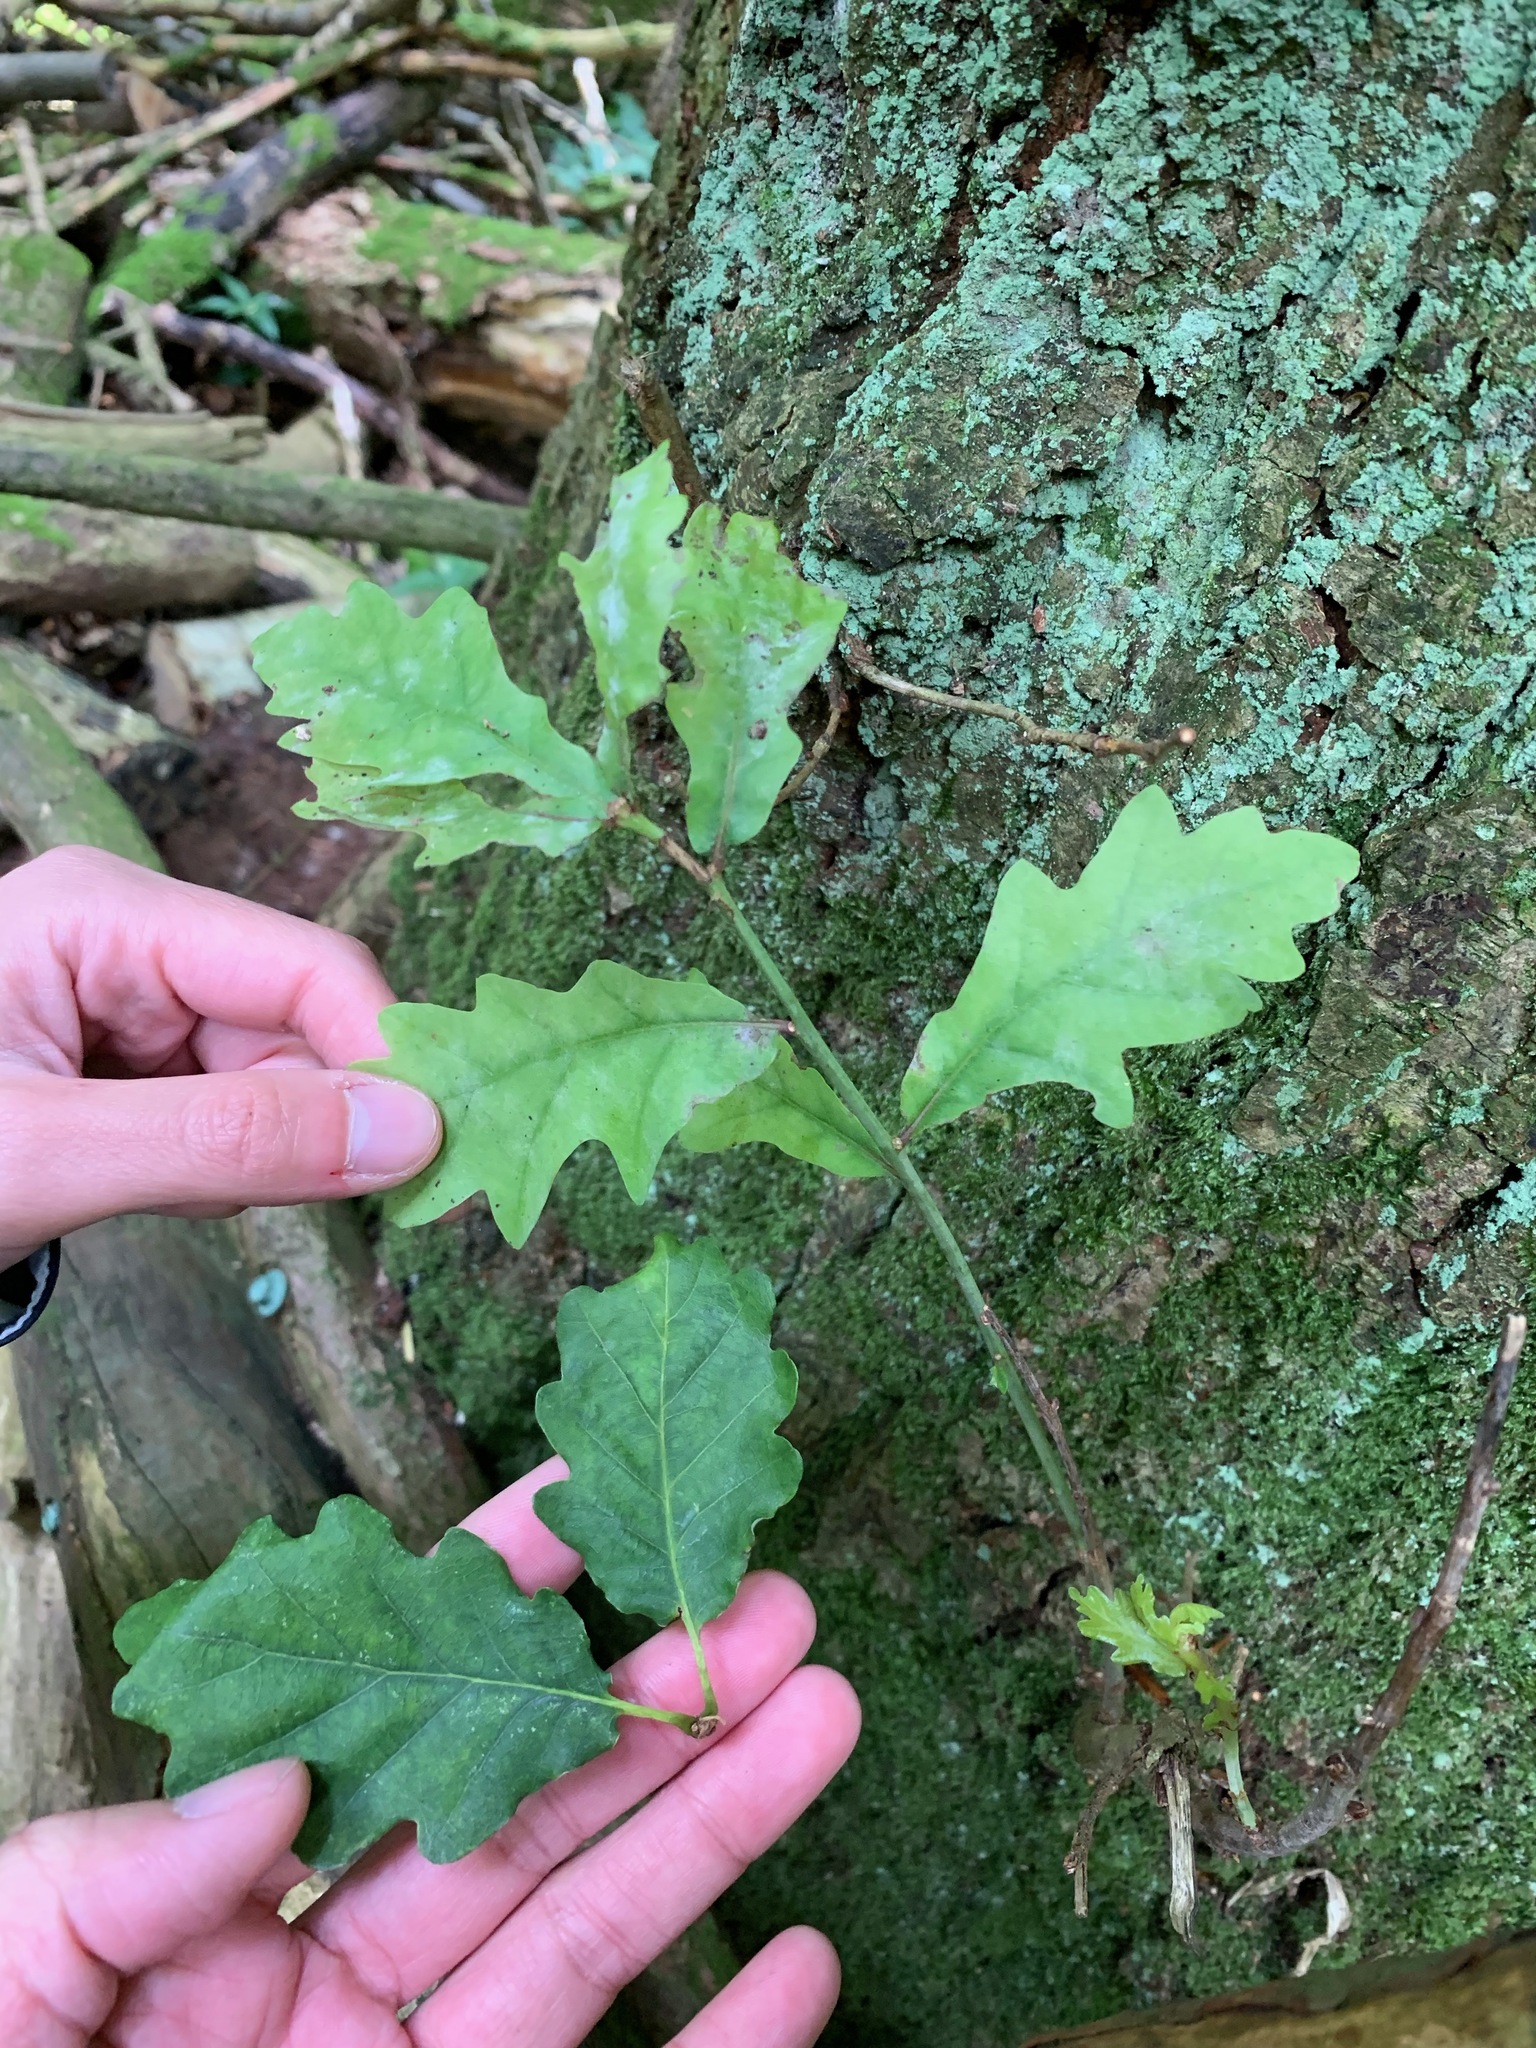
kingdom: Plantae
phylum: Tracheophyta
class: Magnoliopsida
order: Fagales
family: Fagaceae
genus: Quercus
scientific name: Quercus robur
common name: Pedunculate oak
